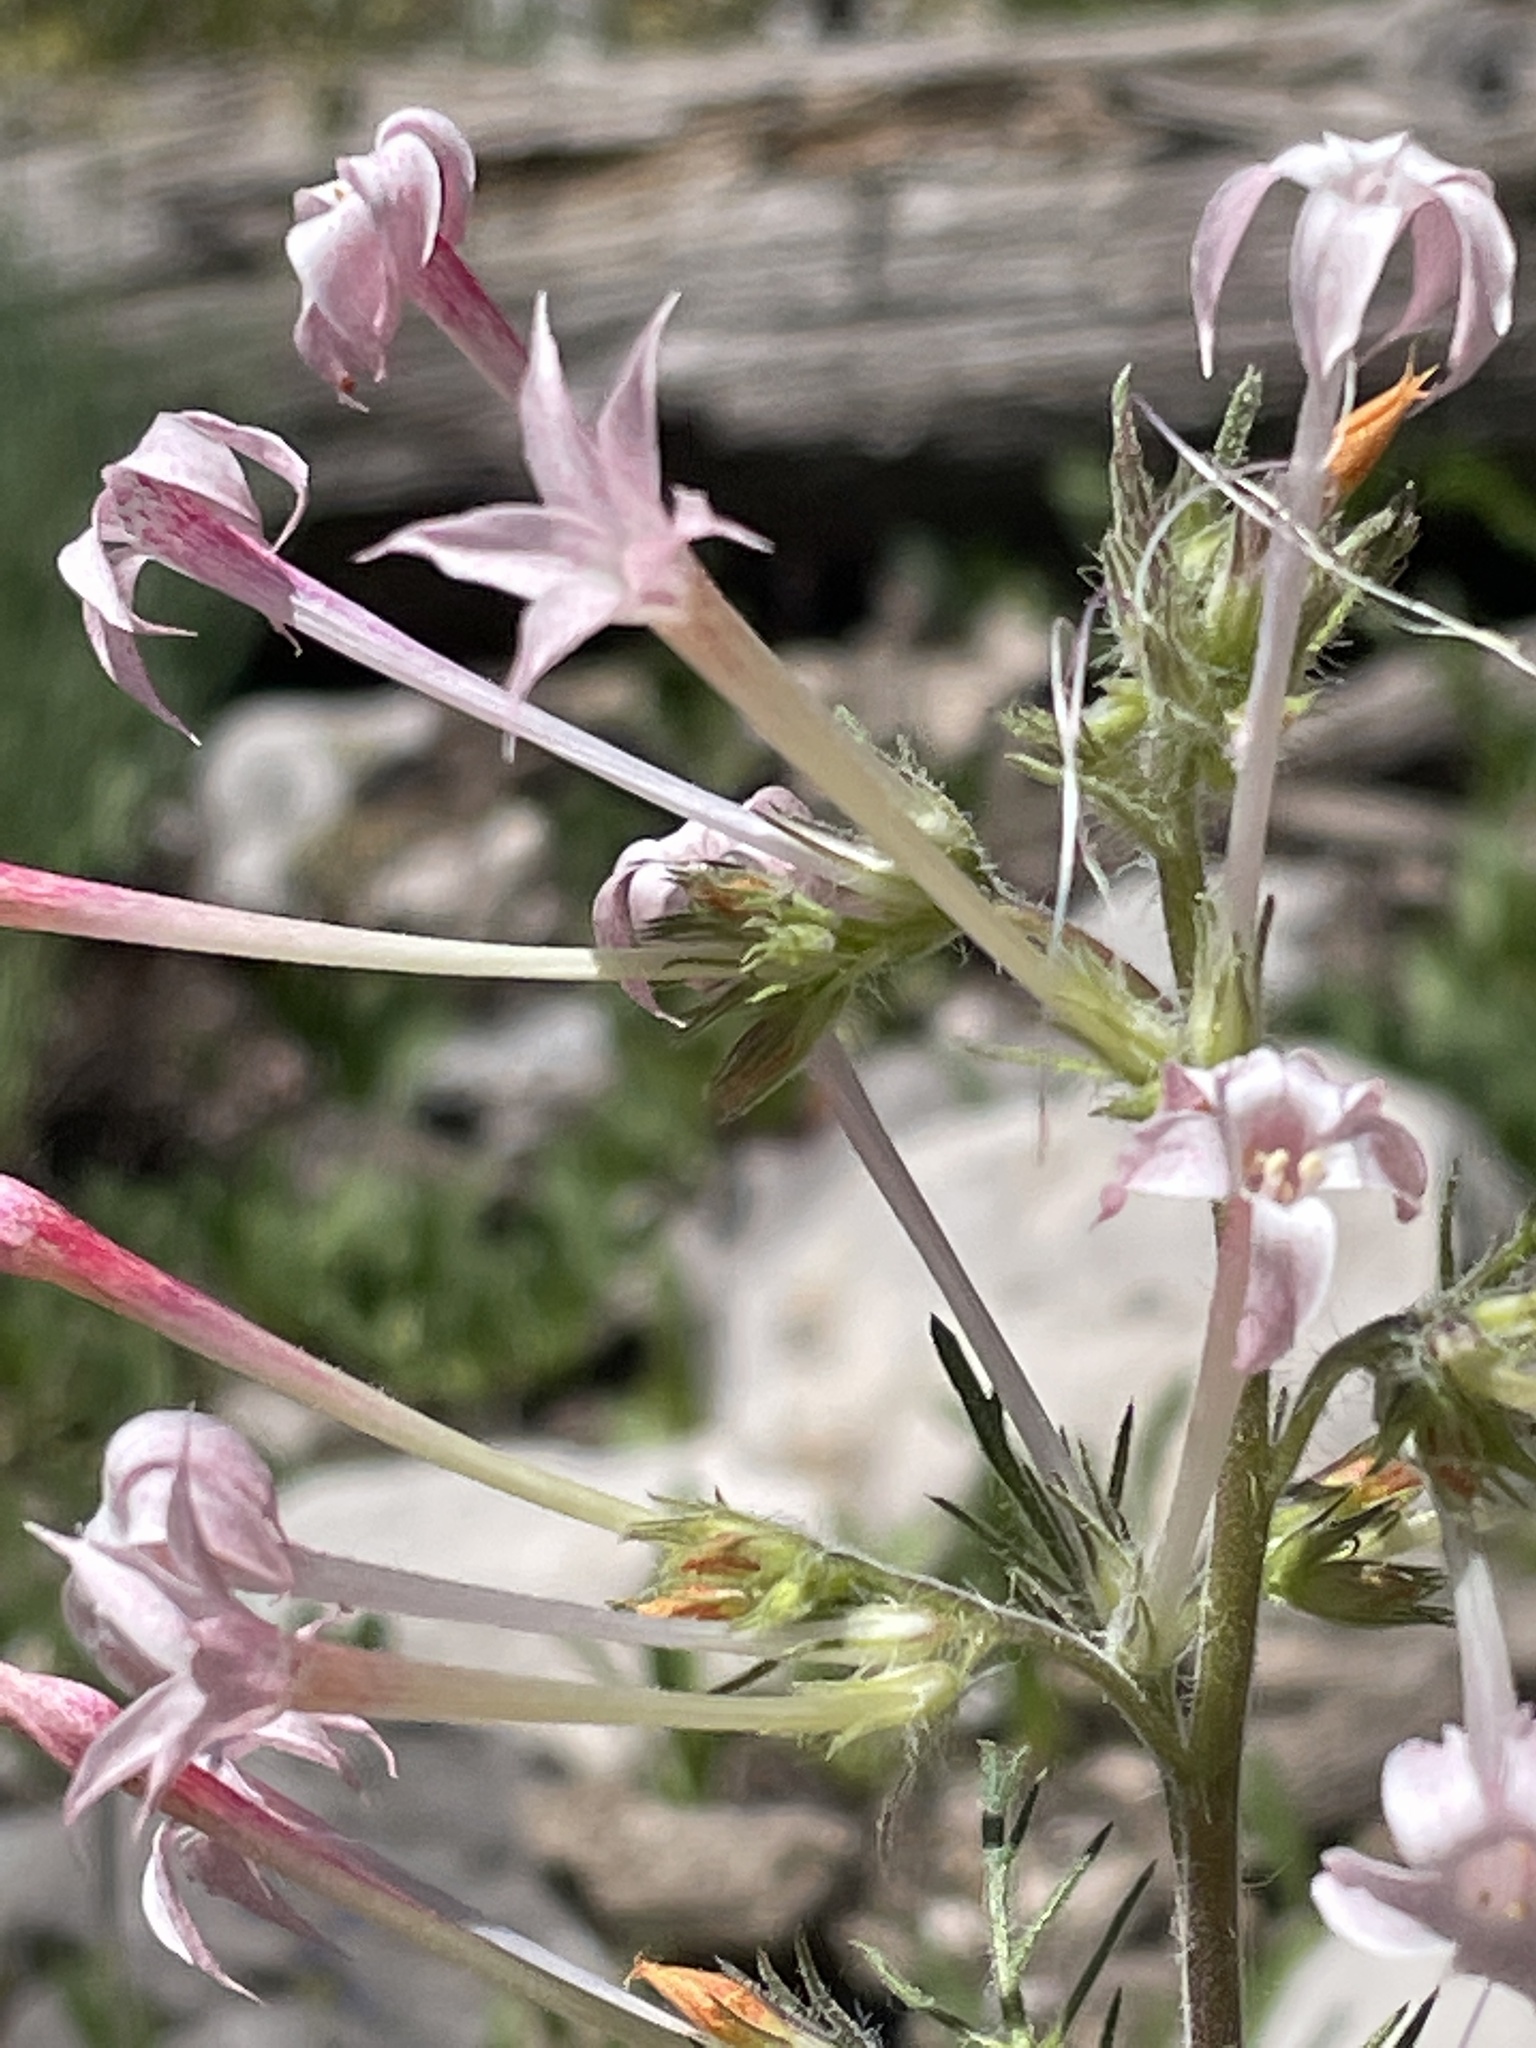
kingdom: Plantae
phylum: Tracheophyta
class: Magnoliopsida
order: Ericales
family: Polemoniaceae
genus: Ipomopsis
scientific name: Ipomopsis tenuituba
